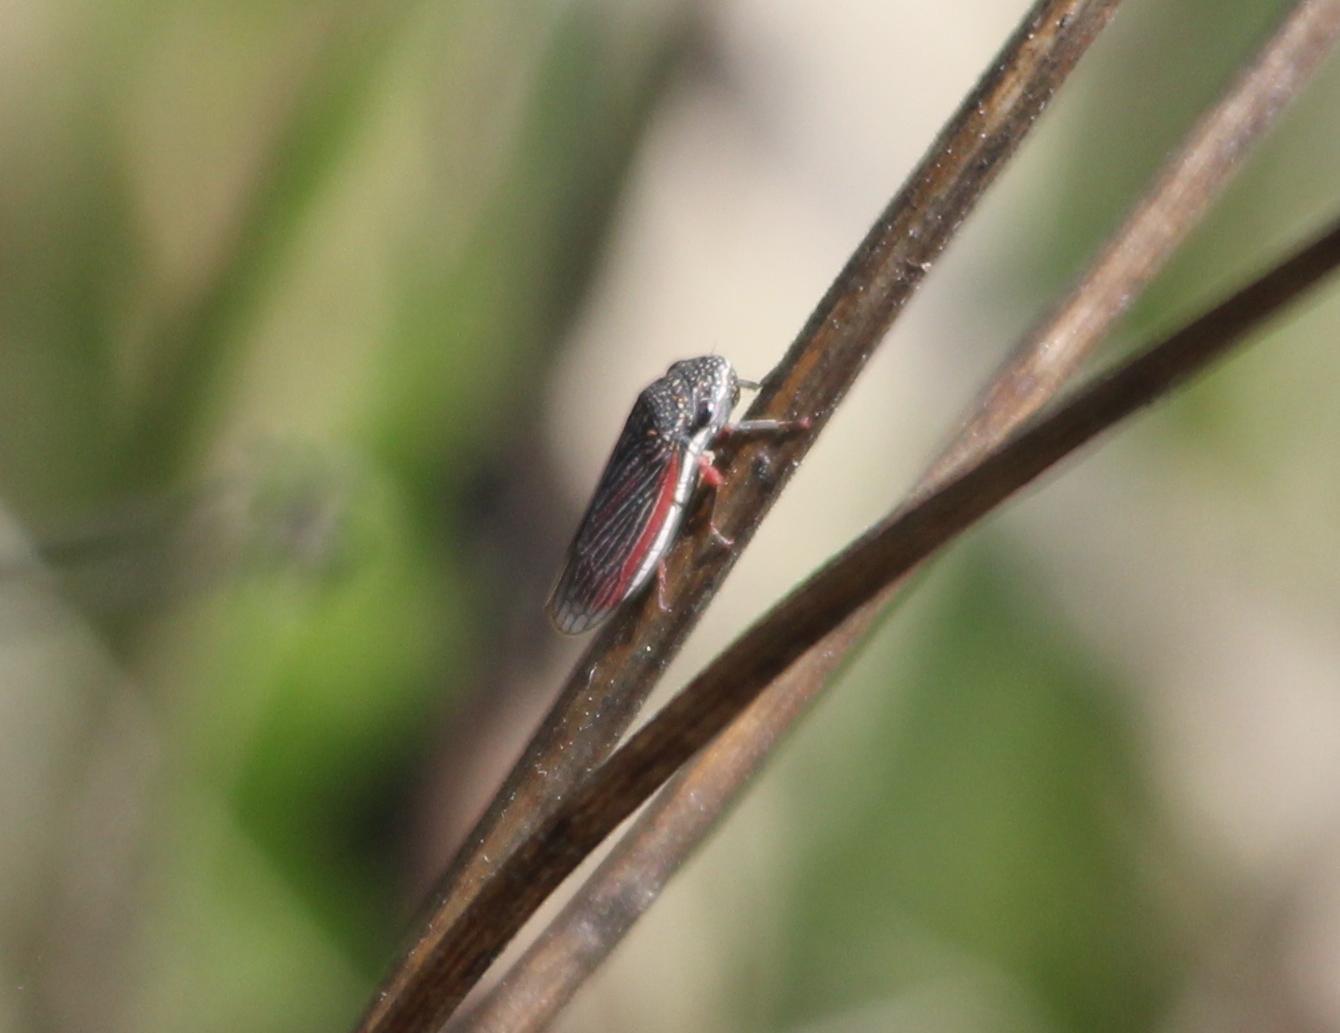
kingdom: Animalia
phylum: Arthropoda
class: Insecta
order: Hemiptera
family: Cicadellidae
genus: Cuerna
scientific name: Cuerna costalis
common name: Lateral-lined sharpshooter
